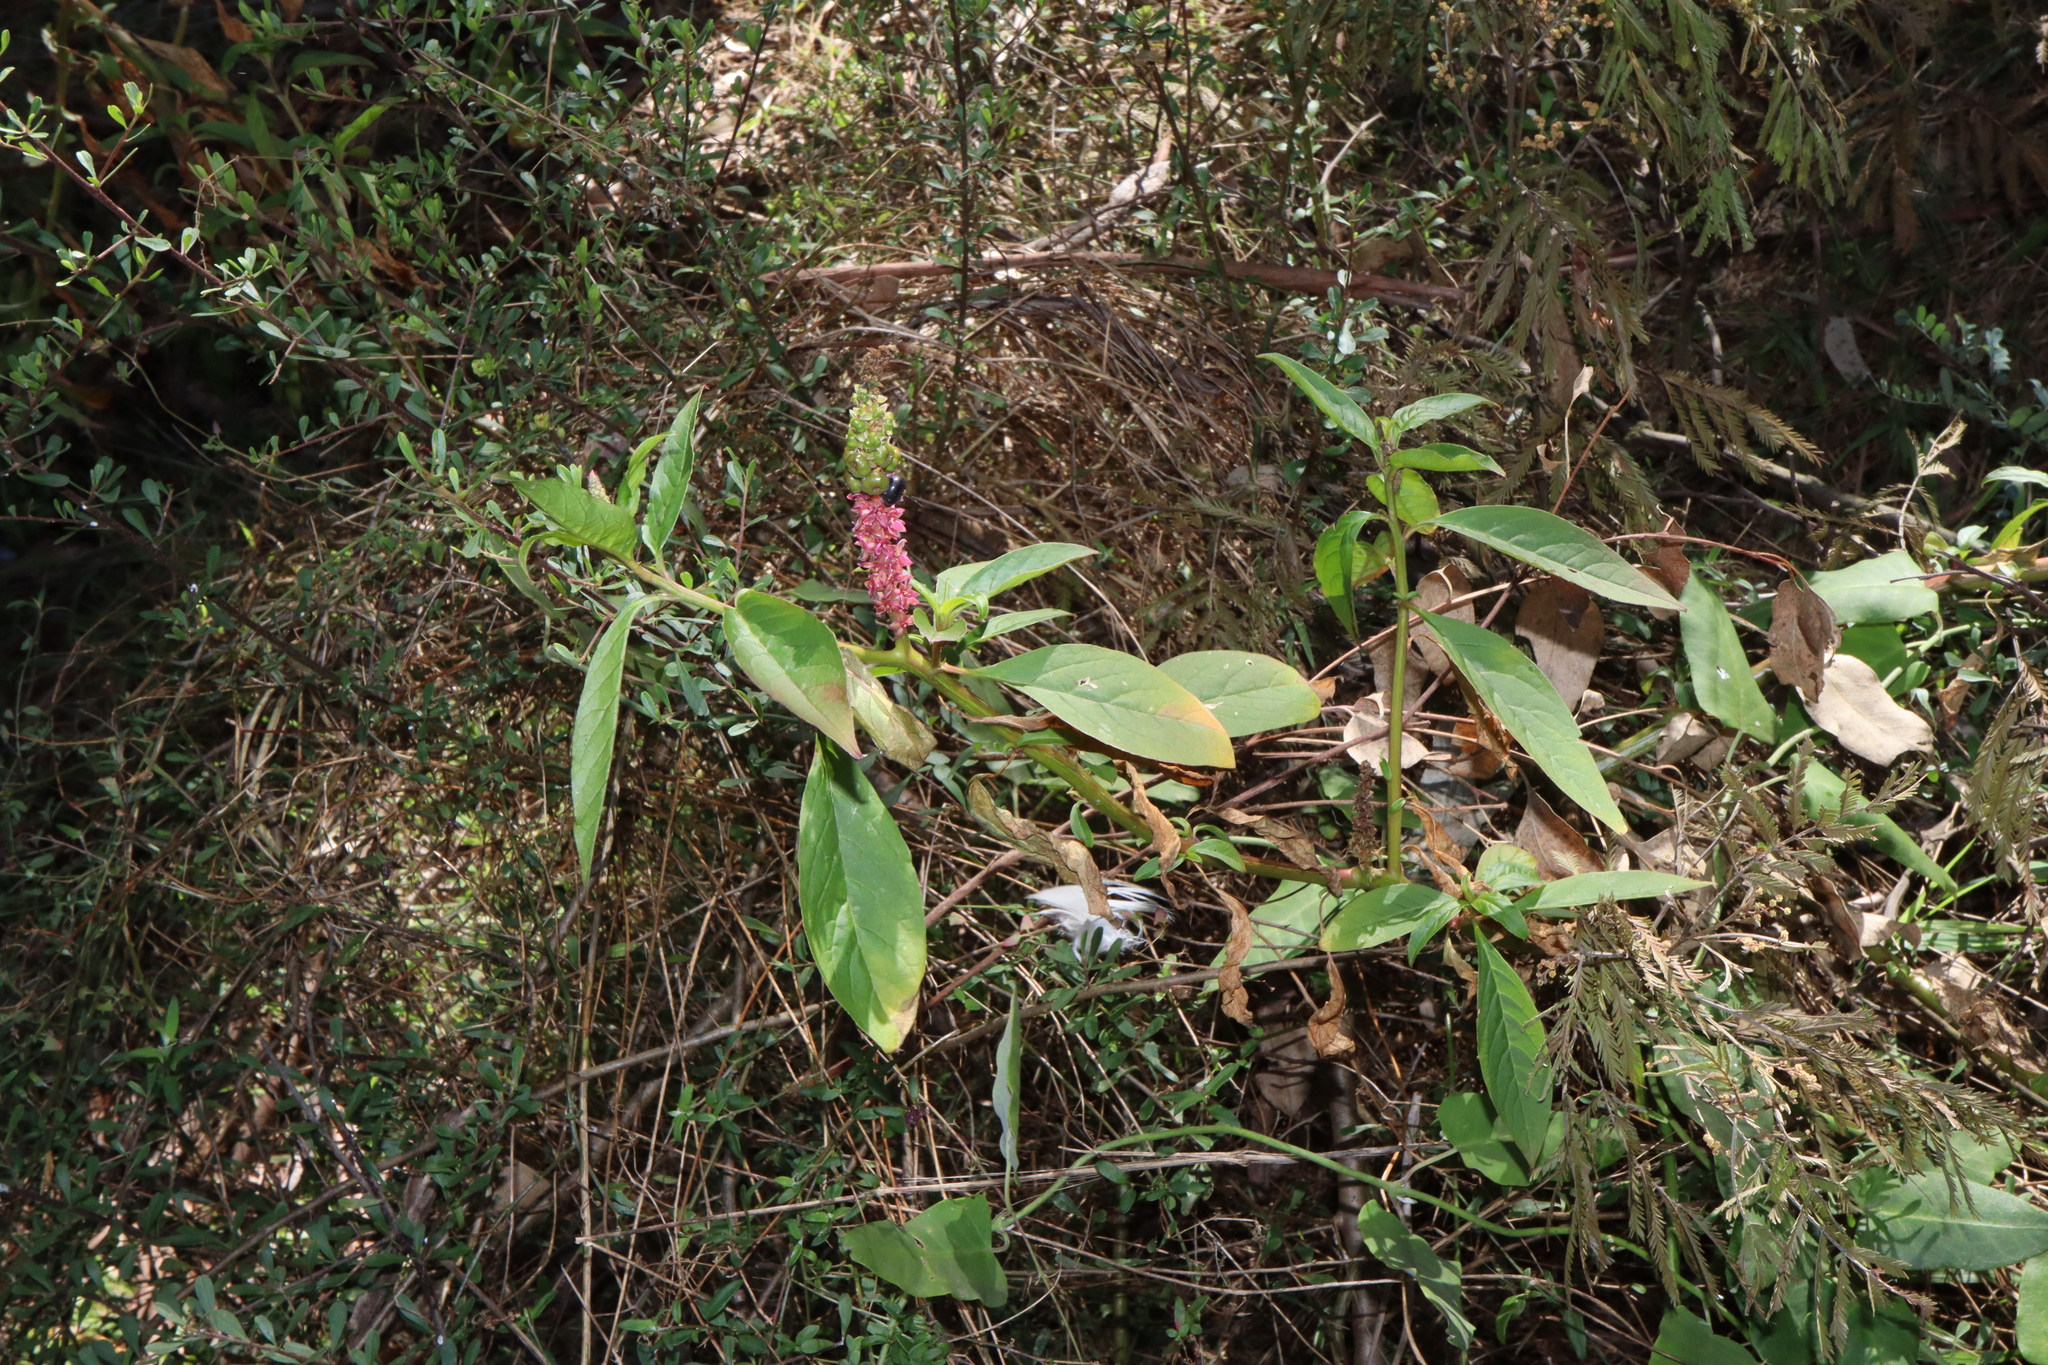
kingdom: Plantae
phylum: Tracheophyta
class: Magnoliopsida
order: Caryophyllales
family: Phytolaccaceae
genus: Phytolacca
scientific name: Phytolacca icosandra
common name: Button pokeweed
